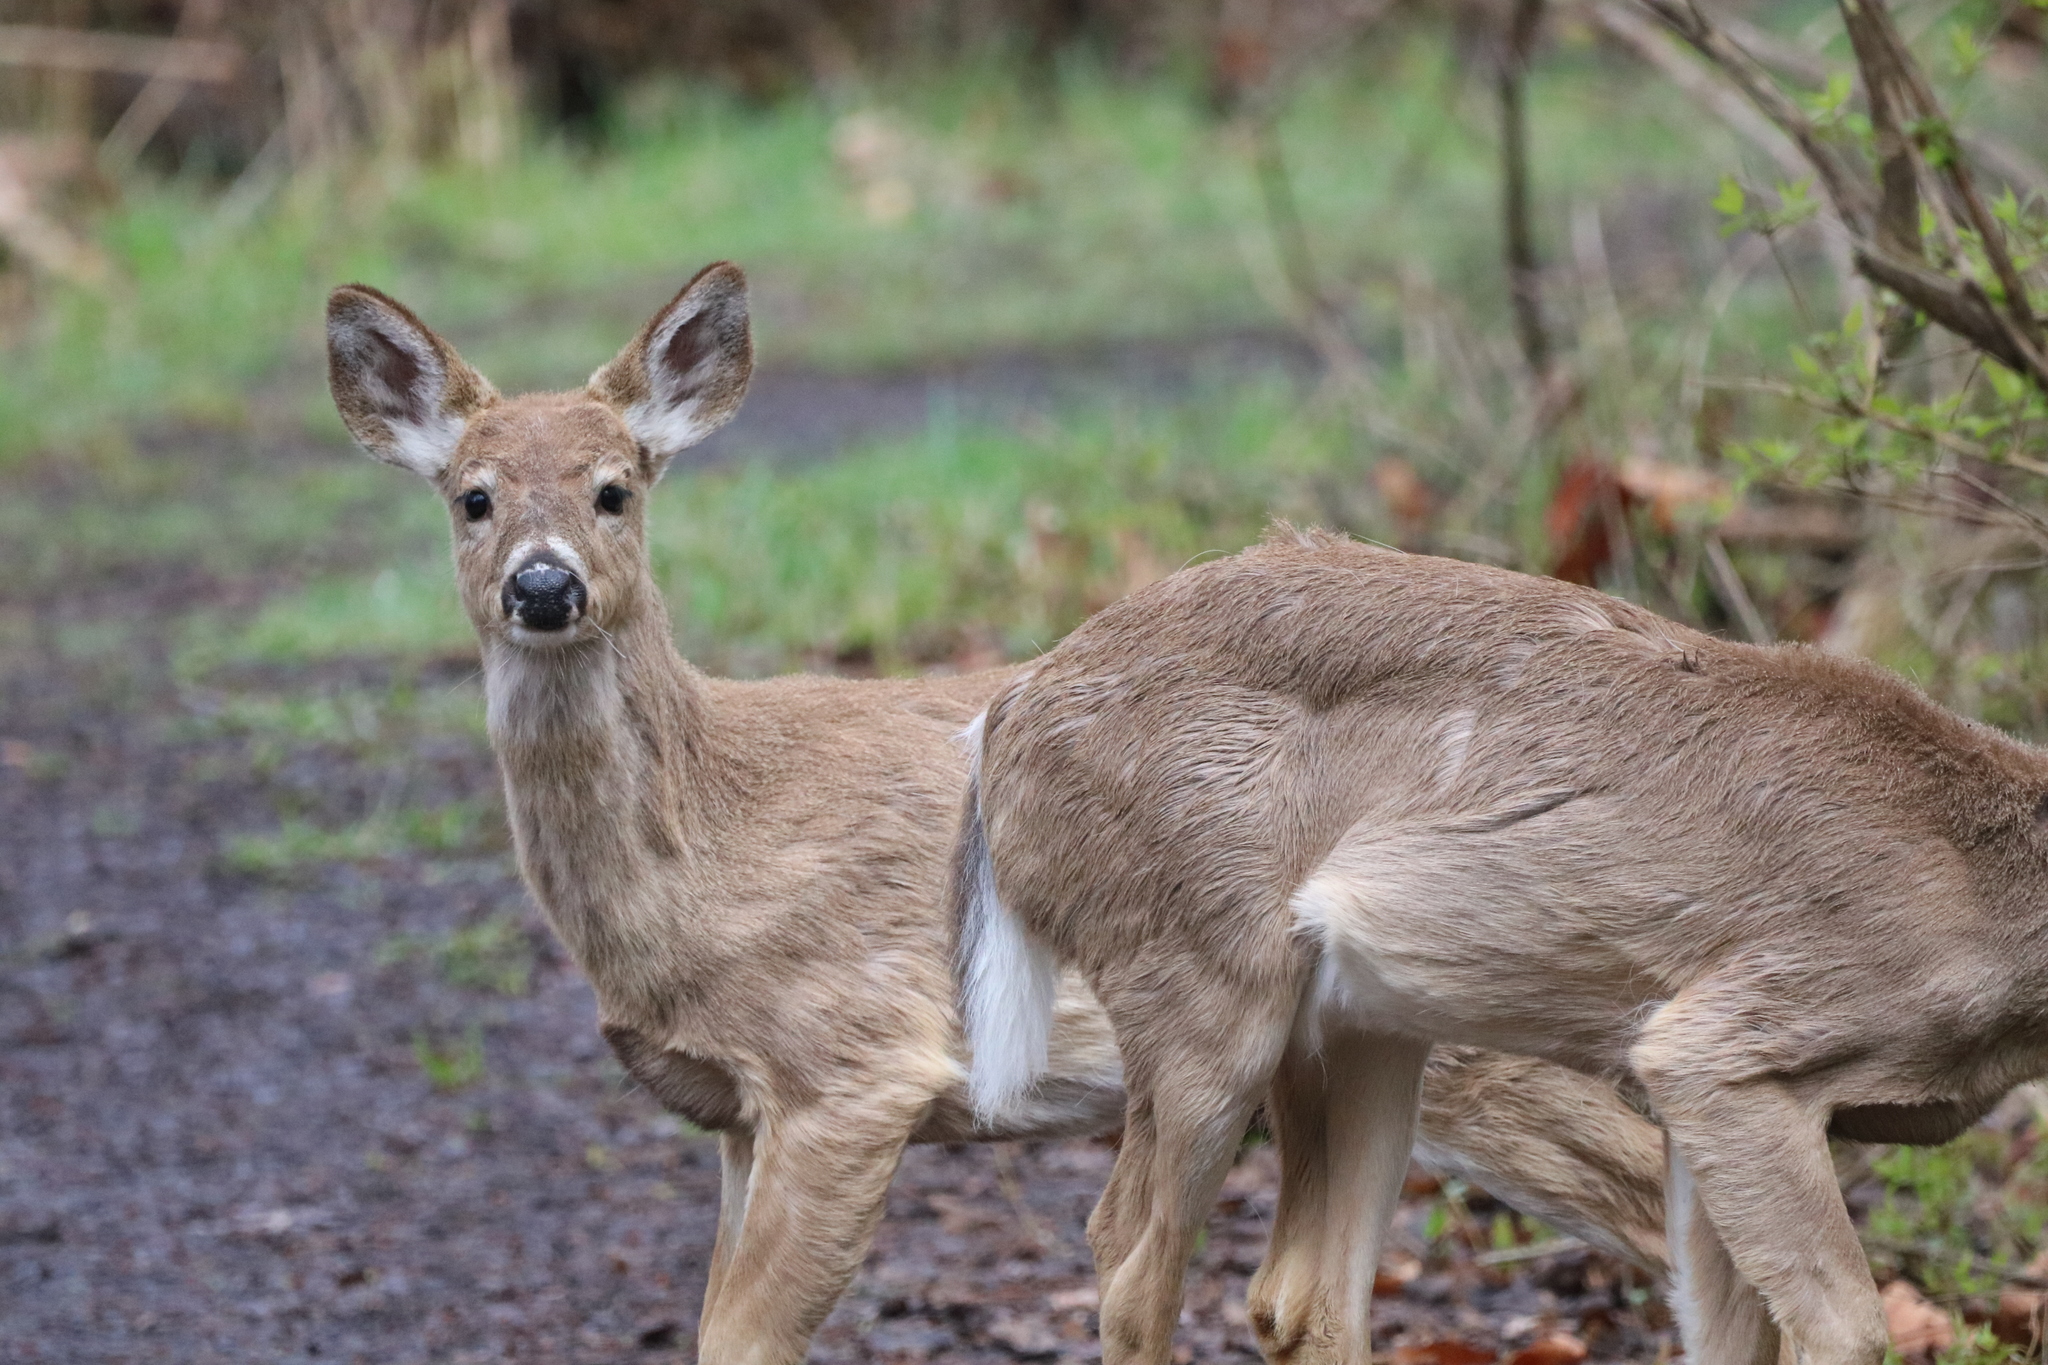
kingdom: Animalia
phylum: Chordata
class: Mammalia
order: Artiodactyla
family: Cervidae
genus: Odocoileus
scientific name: Odocoileus virginianus
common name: White-tailed deer
